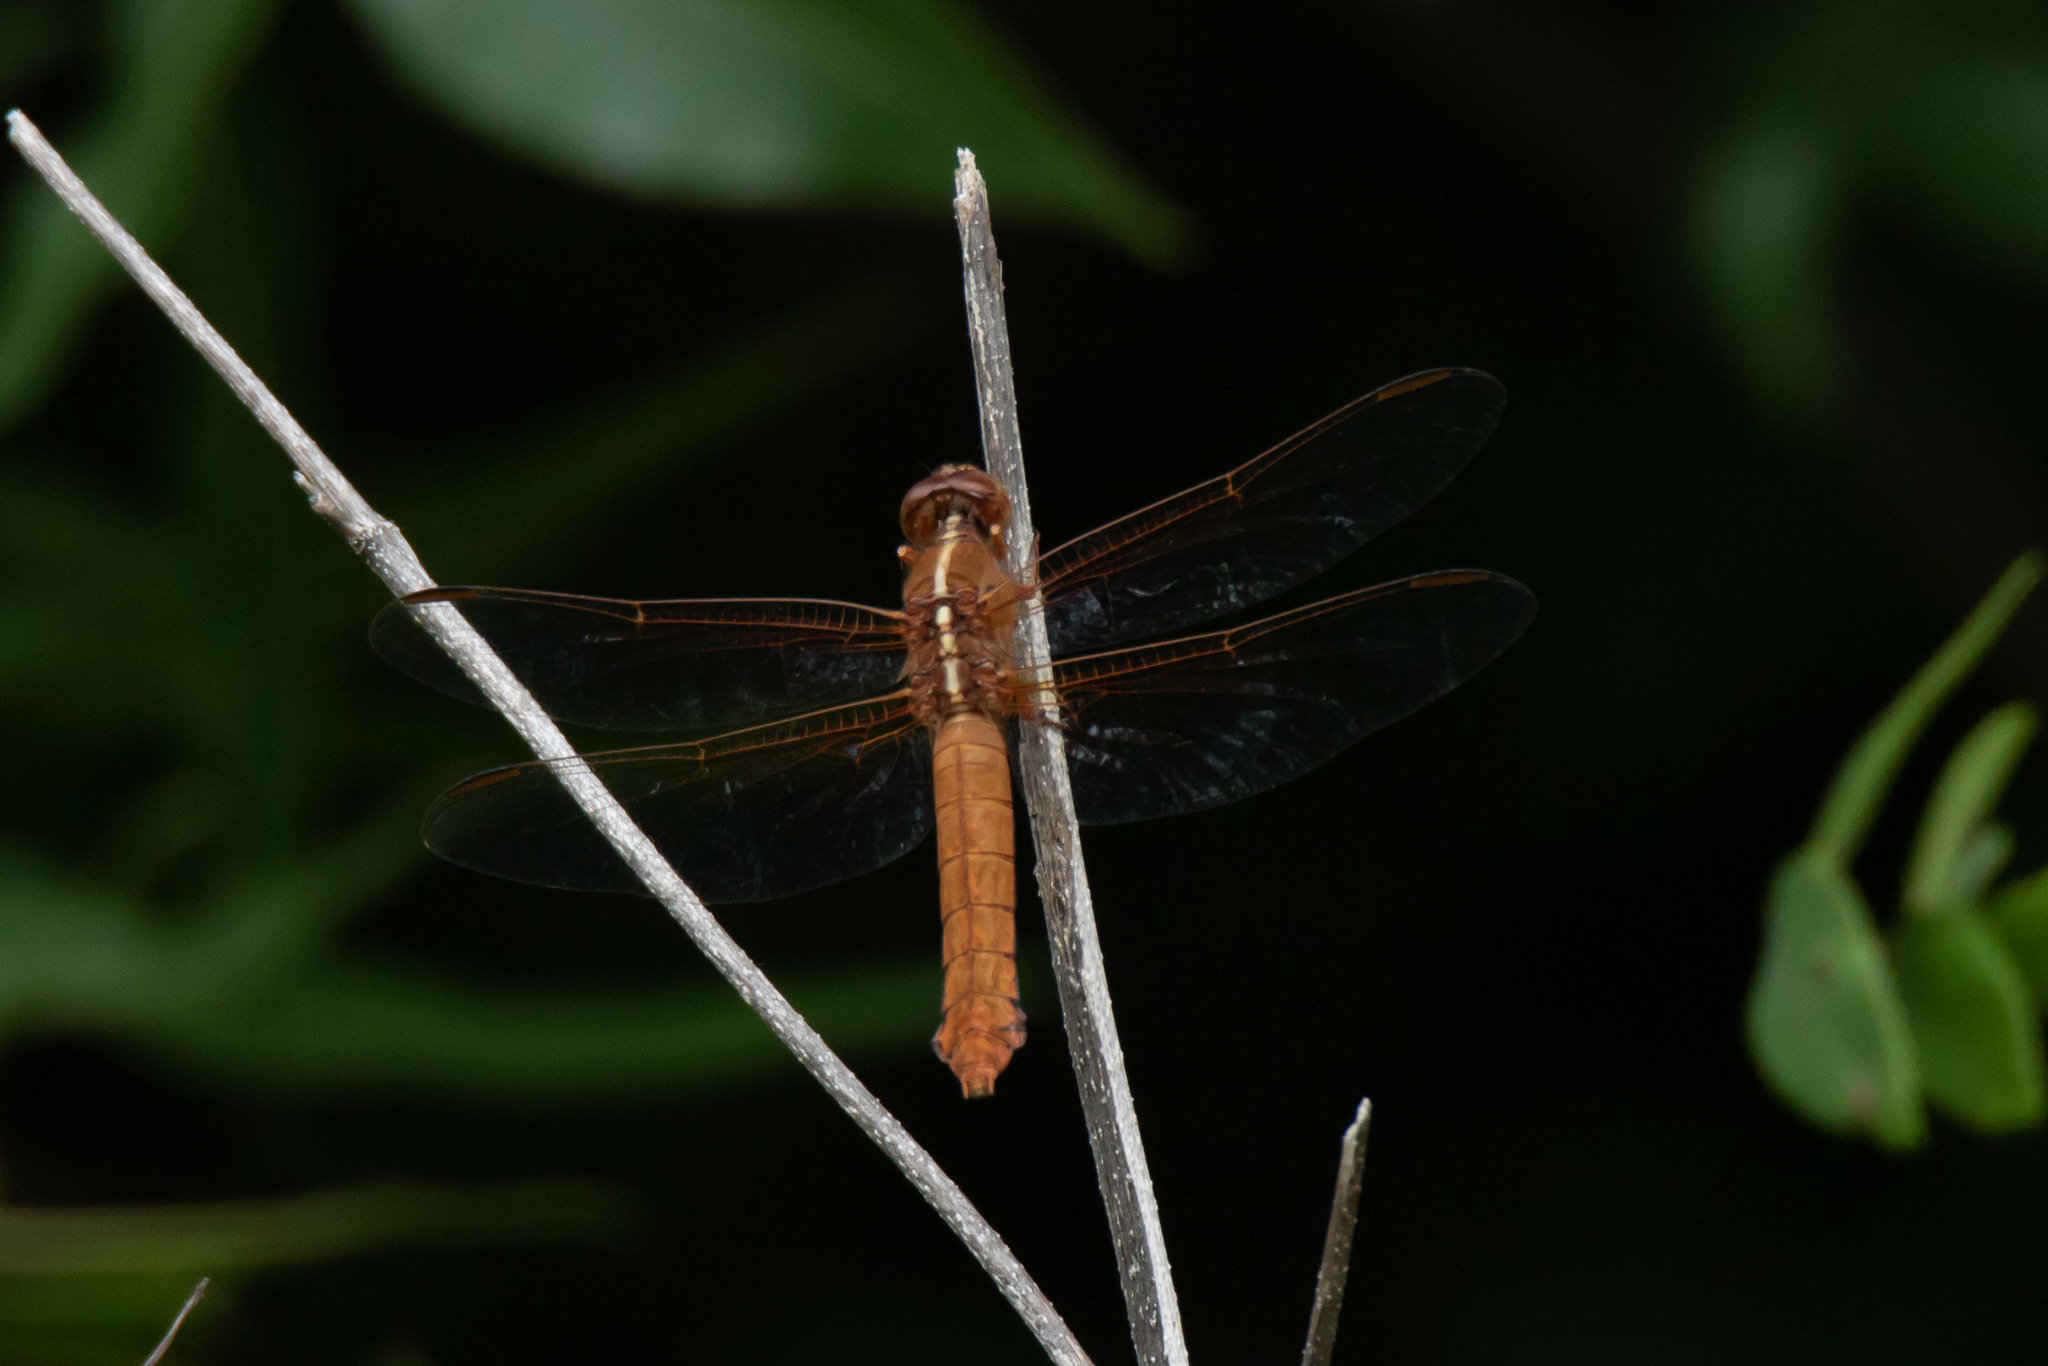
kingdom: Animalia
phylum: Arthropoda
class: Insecta
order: Odonata
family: Libellulidae
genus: Libellula
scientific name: Libellula croceipennis
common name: Neon skimmer
